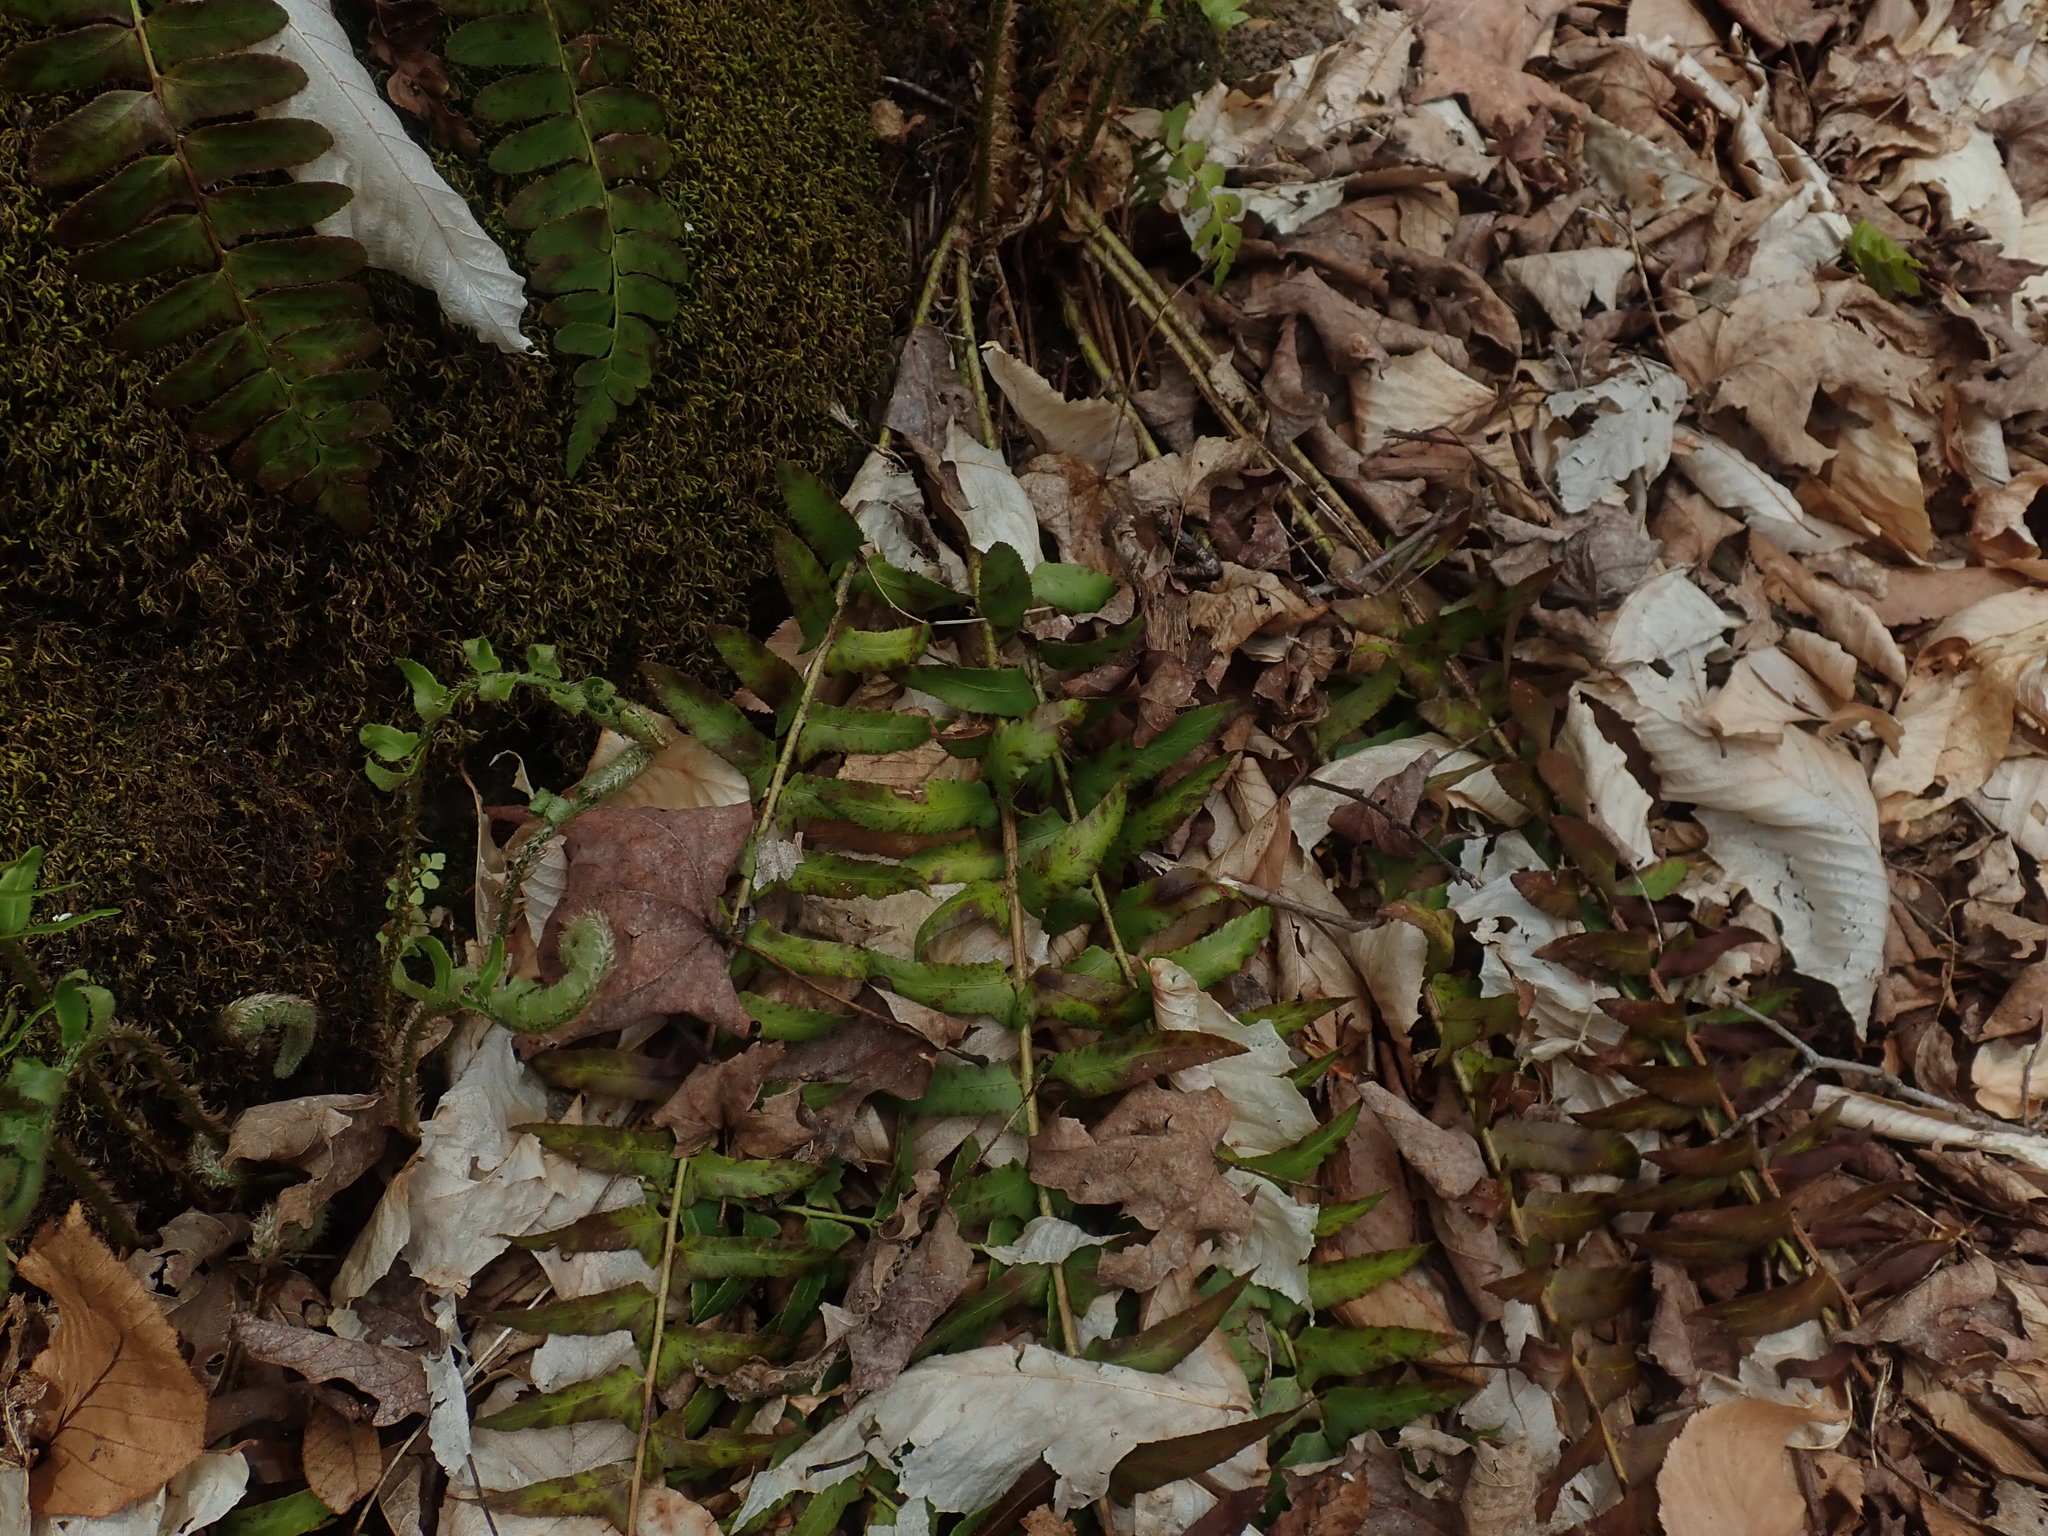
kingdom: Plantae
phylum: Tracheophyta
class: Polypodiopsida
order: Polypodiales
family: Dryopteridaceae
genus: Polystichum
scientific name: Polystichum acrostichoides
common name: Christmas fern
